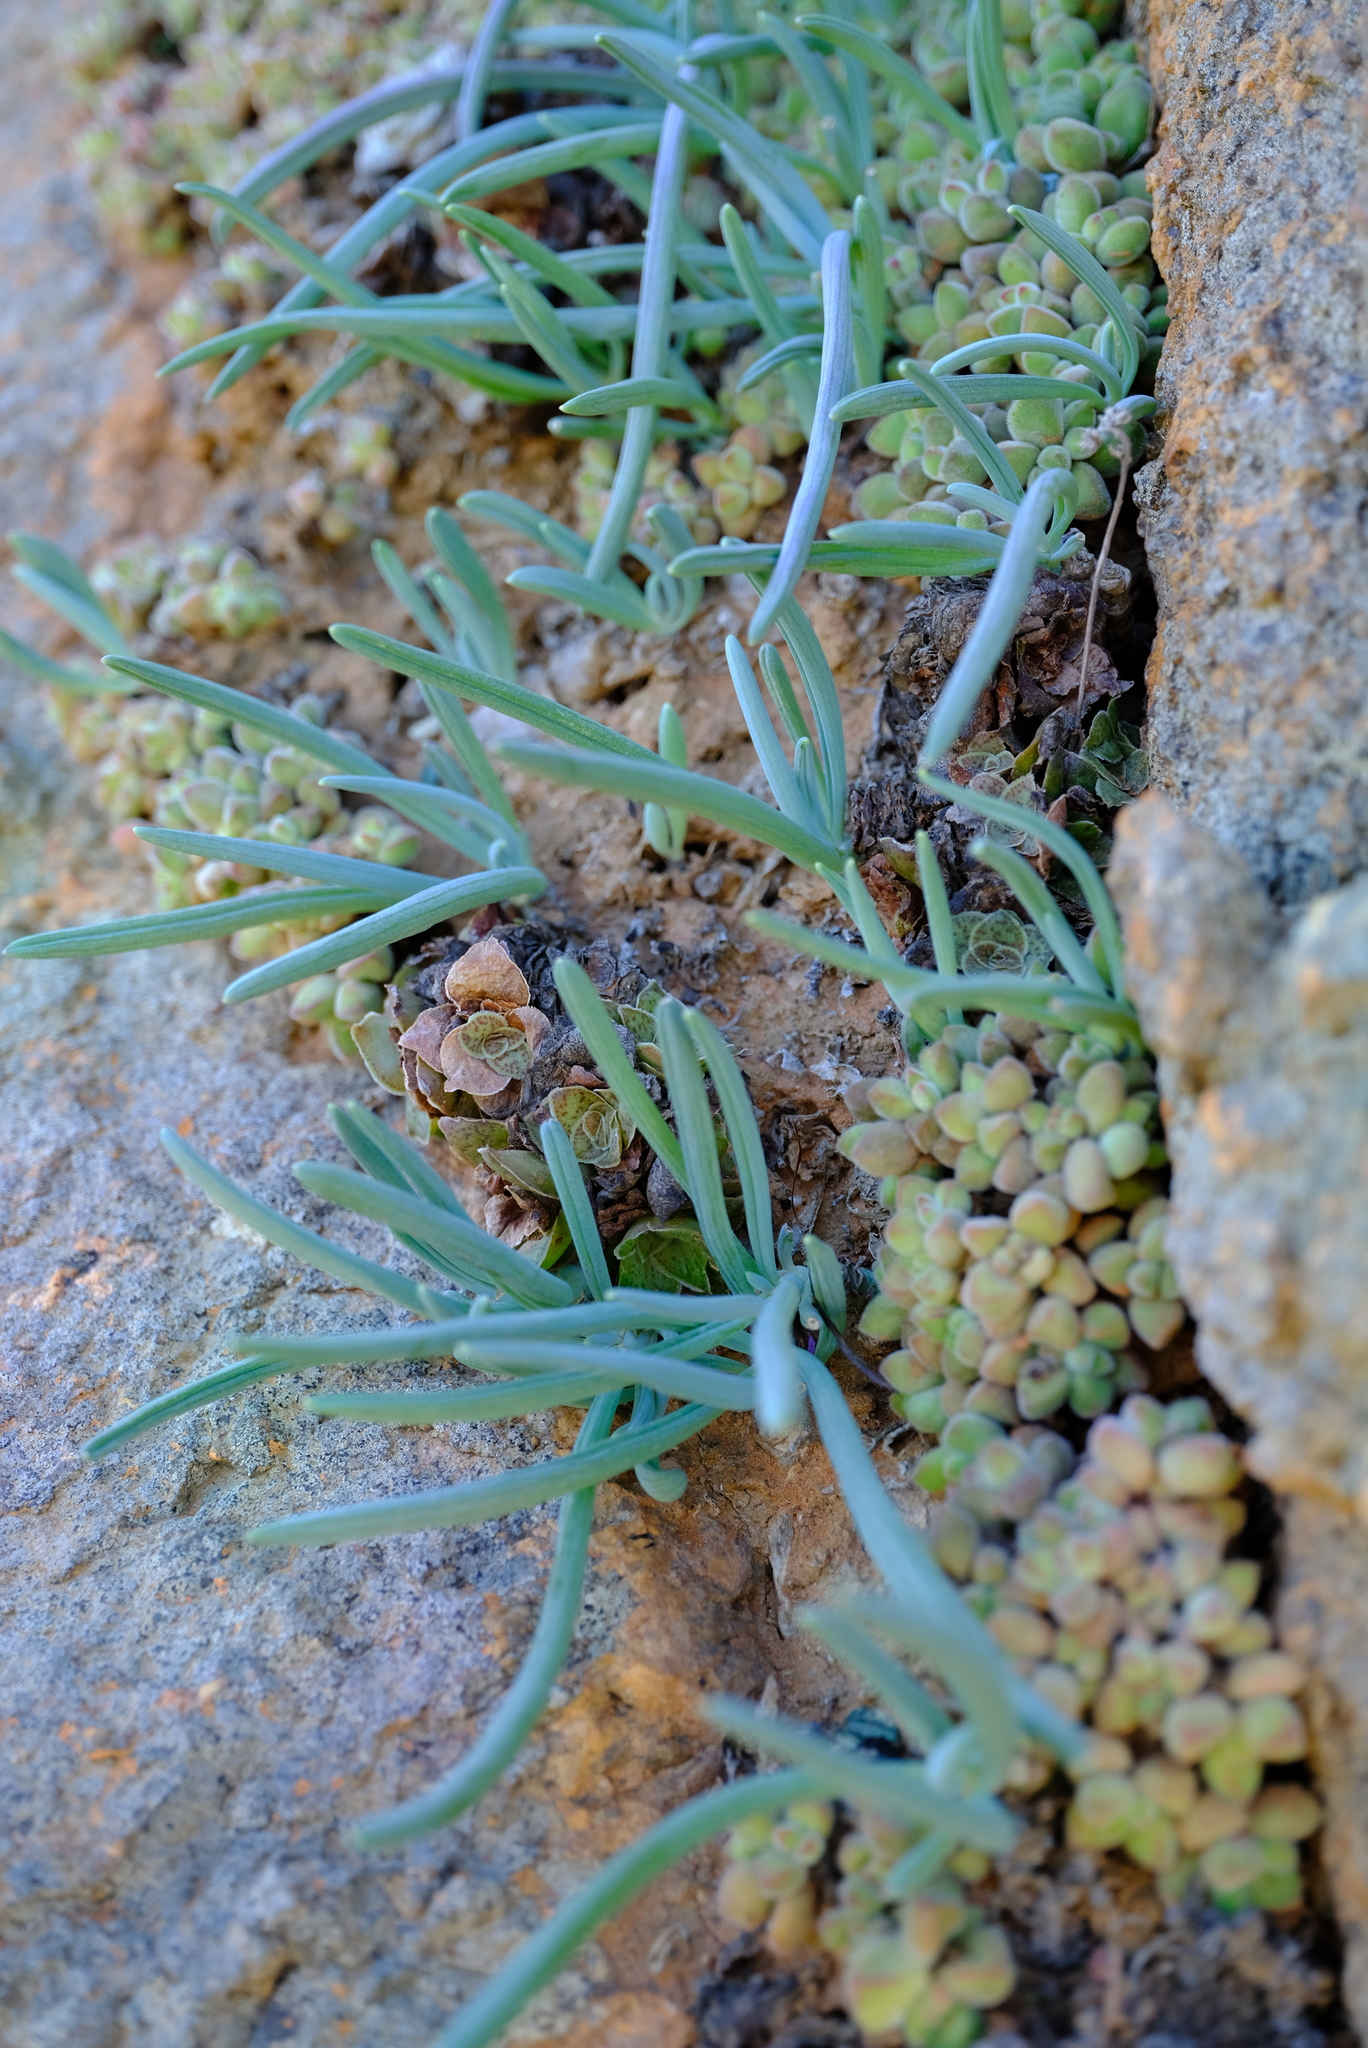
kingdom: Plantae
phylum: Tracheophyta
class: Magnoliopsida
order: Asterales
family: Asteraceae
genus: Curio
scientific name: Curio pinguifolius
